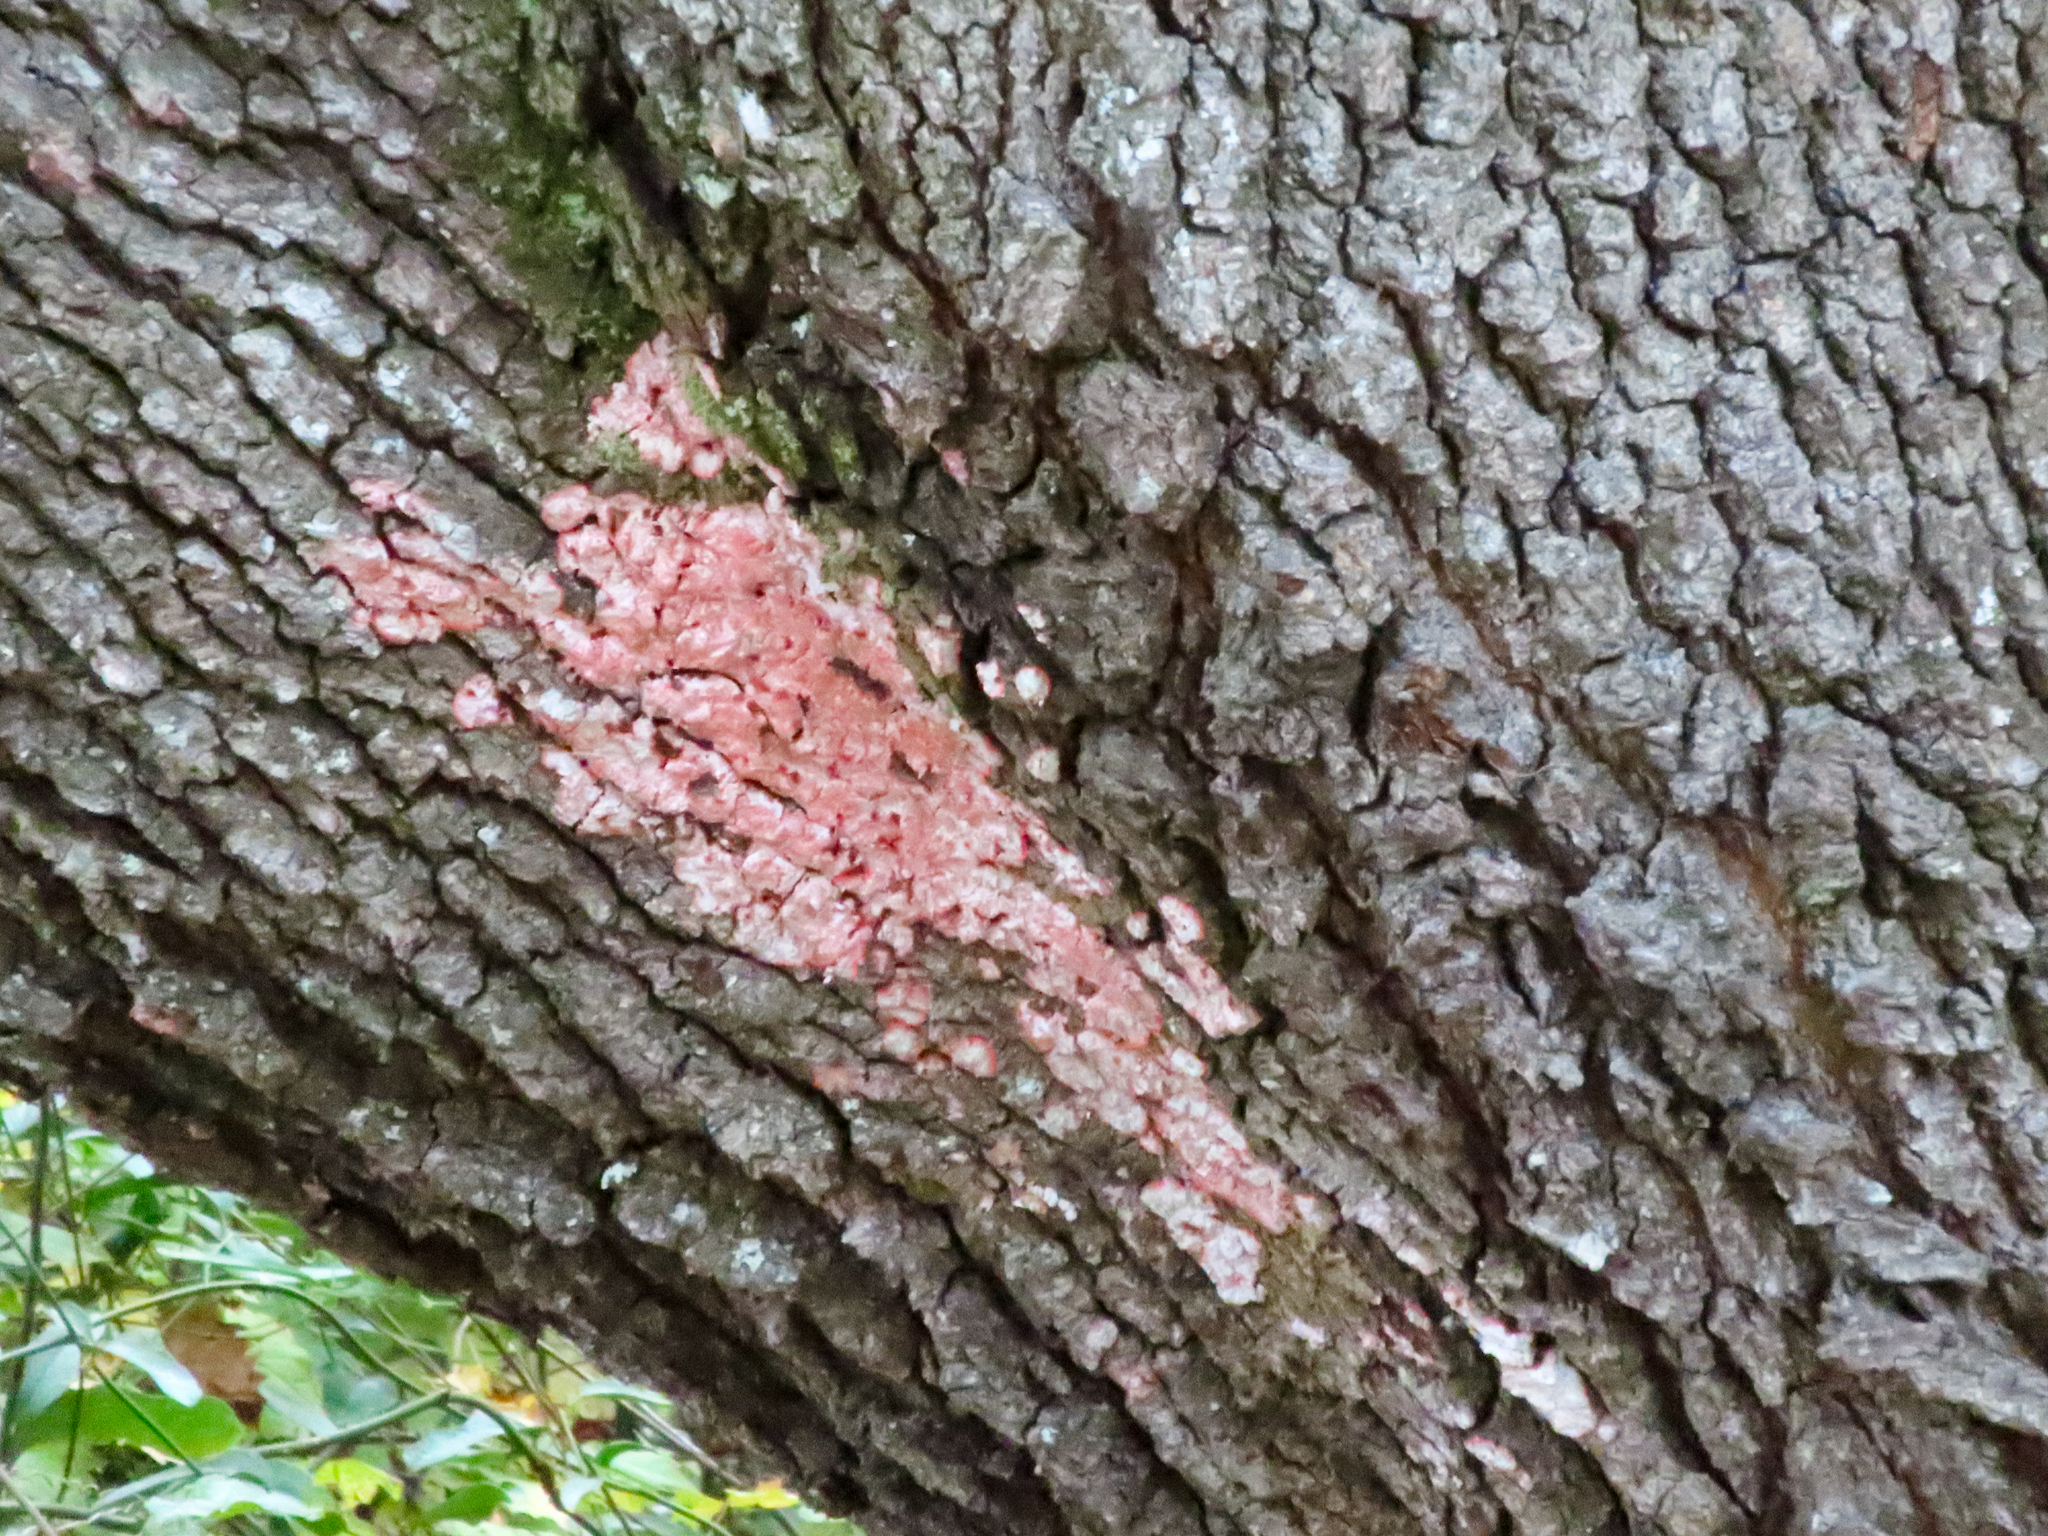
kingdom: Fungi
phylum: Ascomycota
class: Arthoniomycetes
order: Arthoniales
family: Arthoniaceae
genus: Herpothallon
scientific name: Herpothallon rubrocinctum
